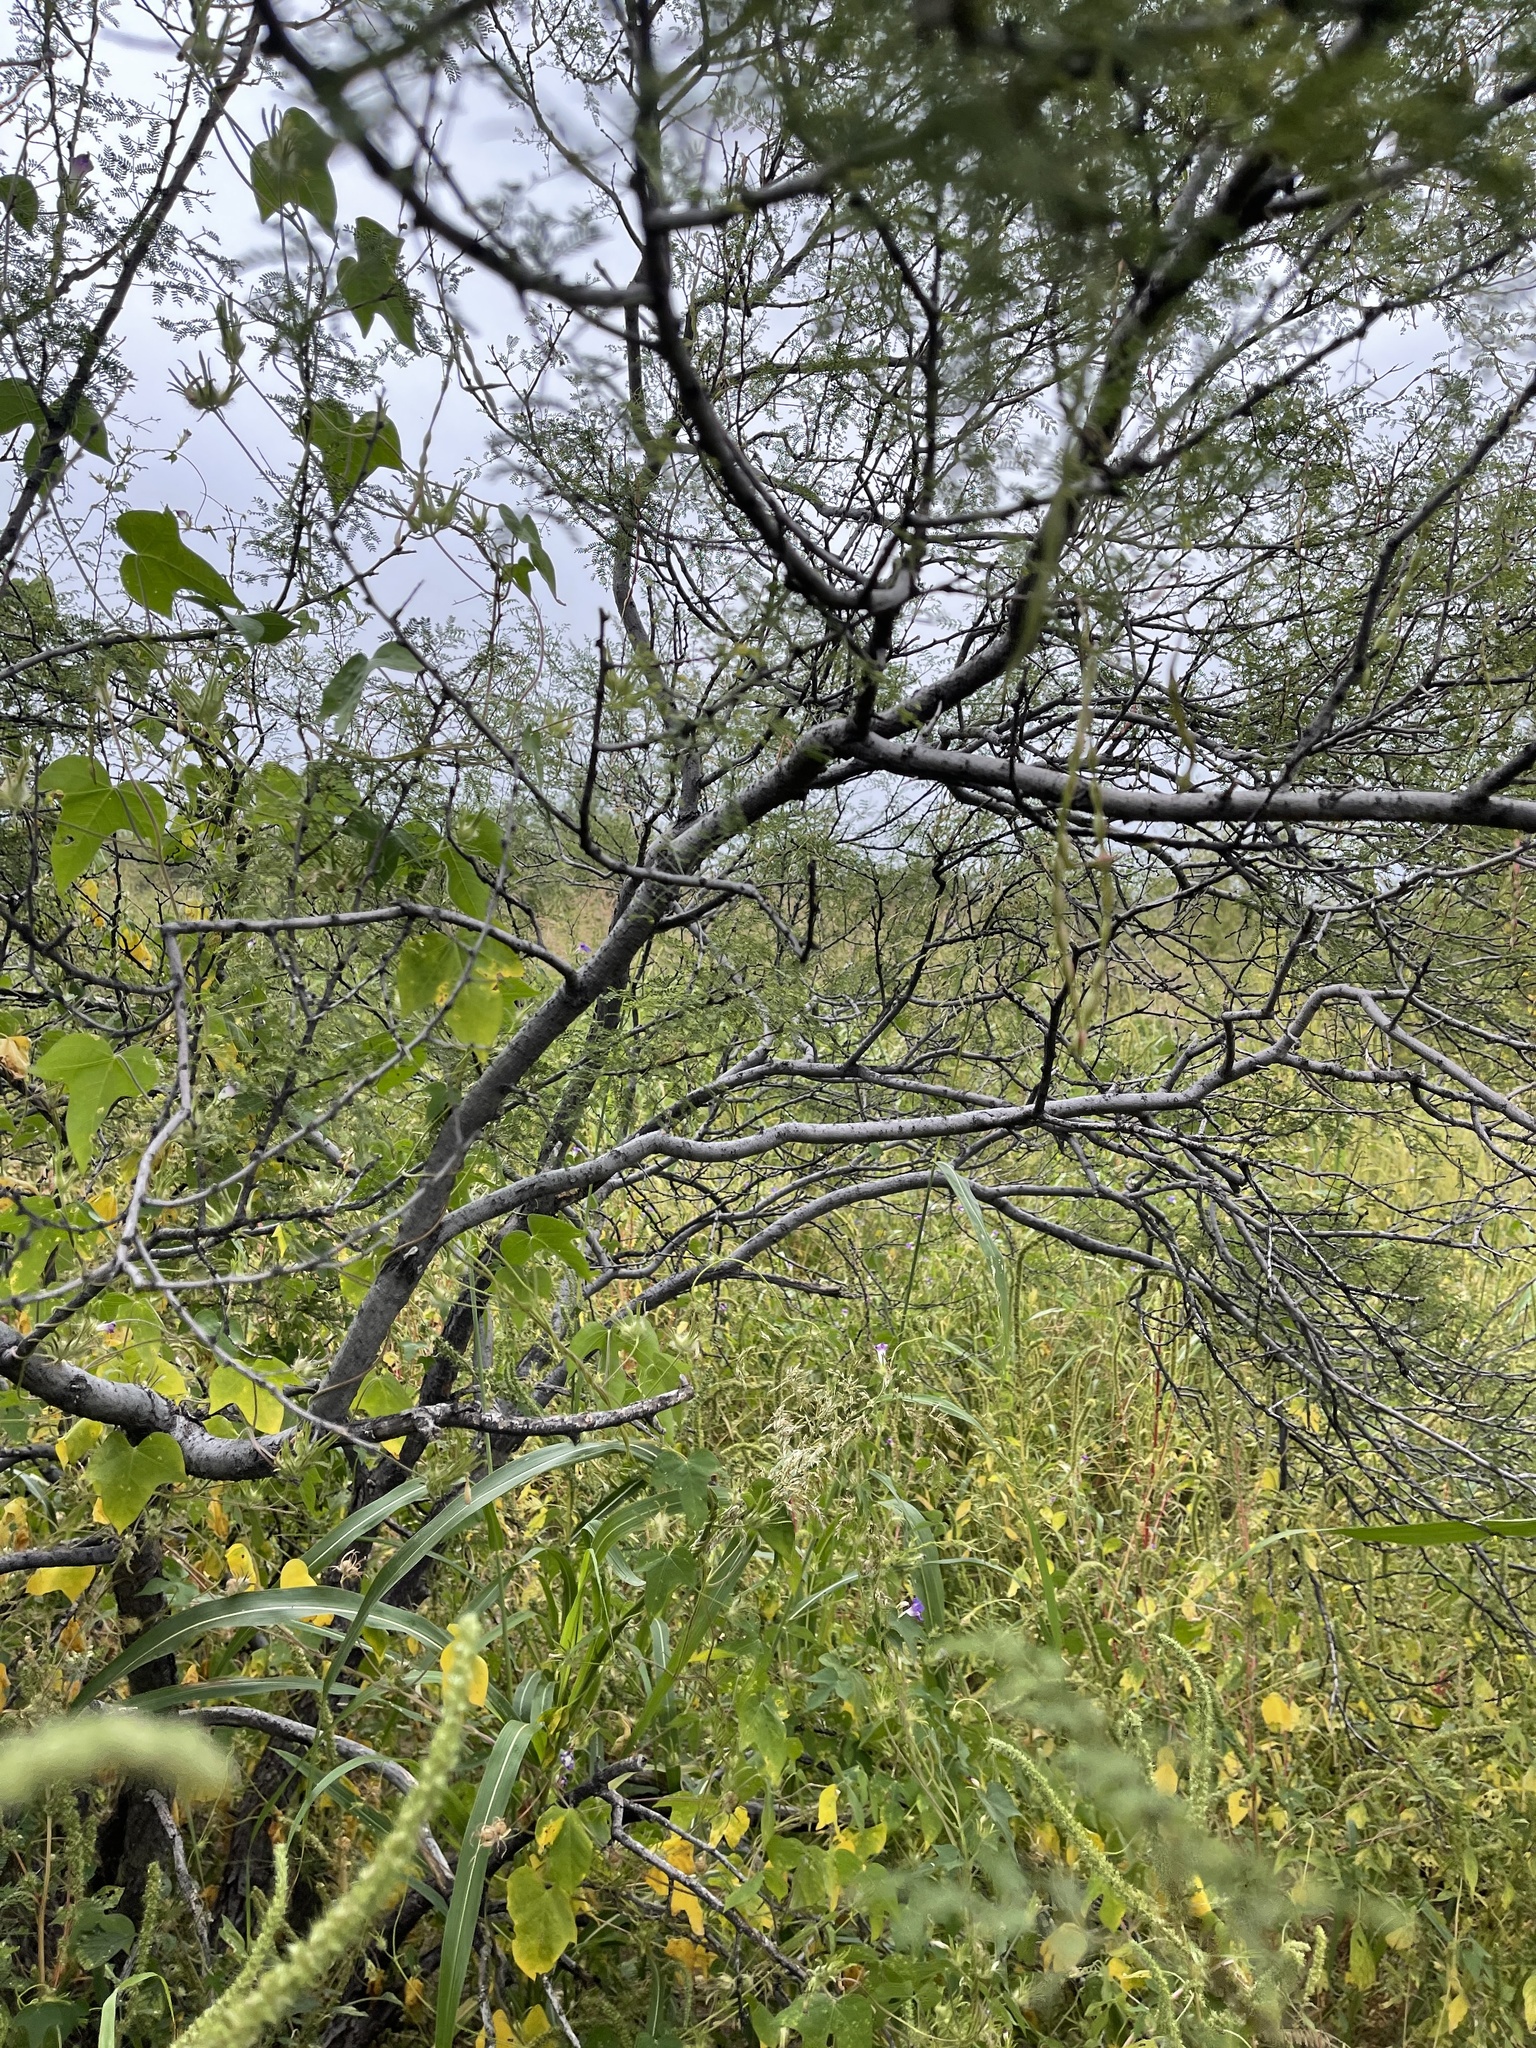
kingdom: Plantae
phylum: Tracheophyta
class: Magnoliopsida
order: Fabales
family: Fabaceae
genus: Vachellia
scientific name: Vachellia constricta
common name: Mescat acacia
